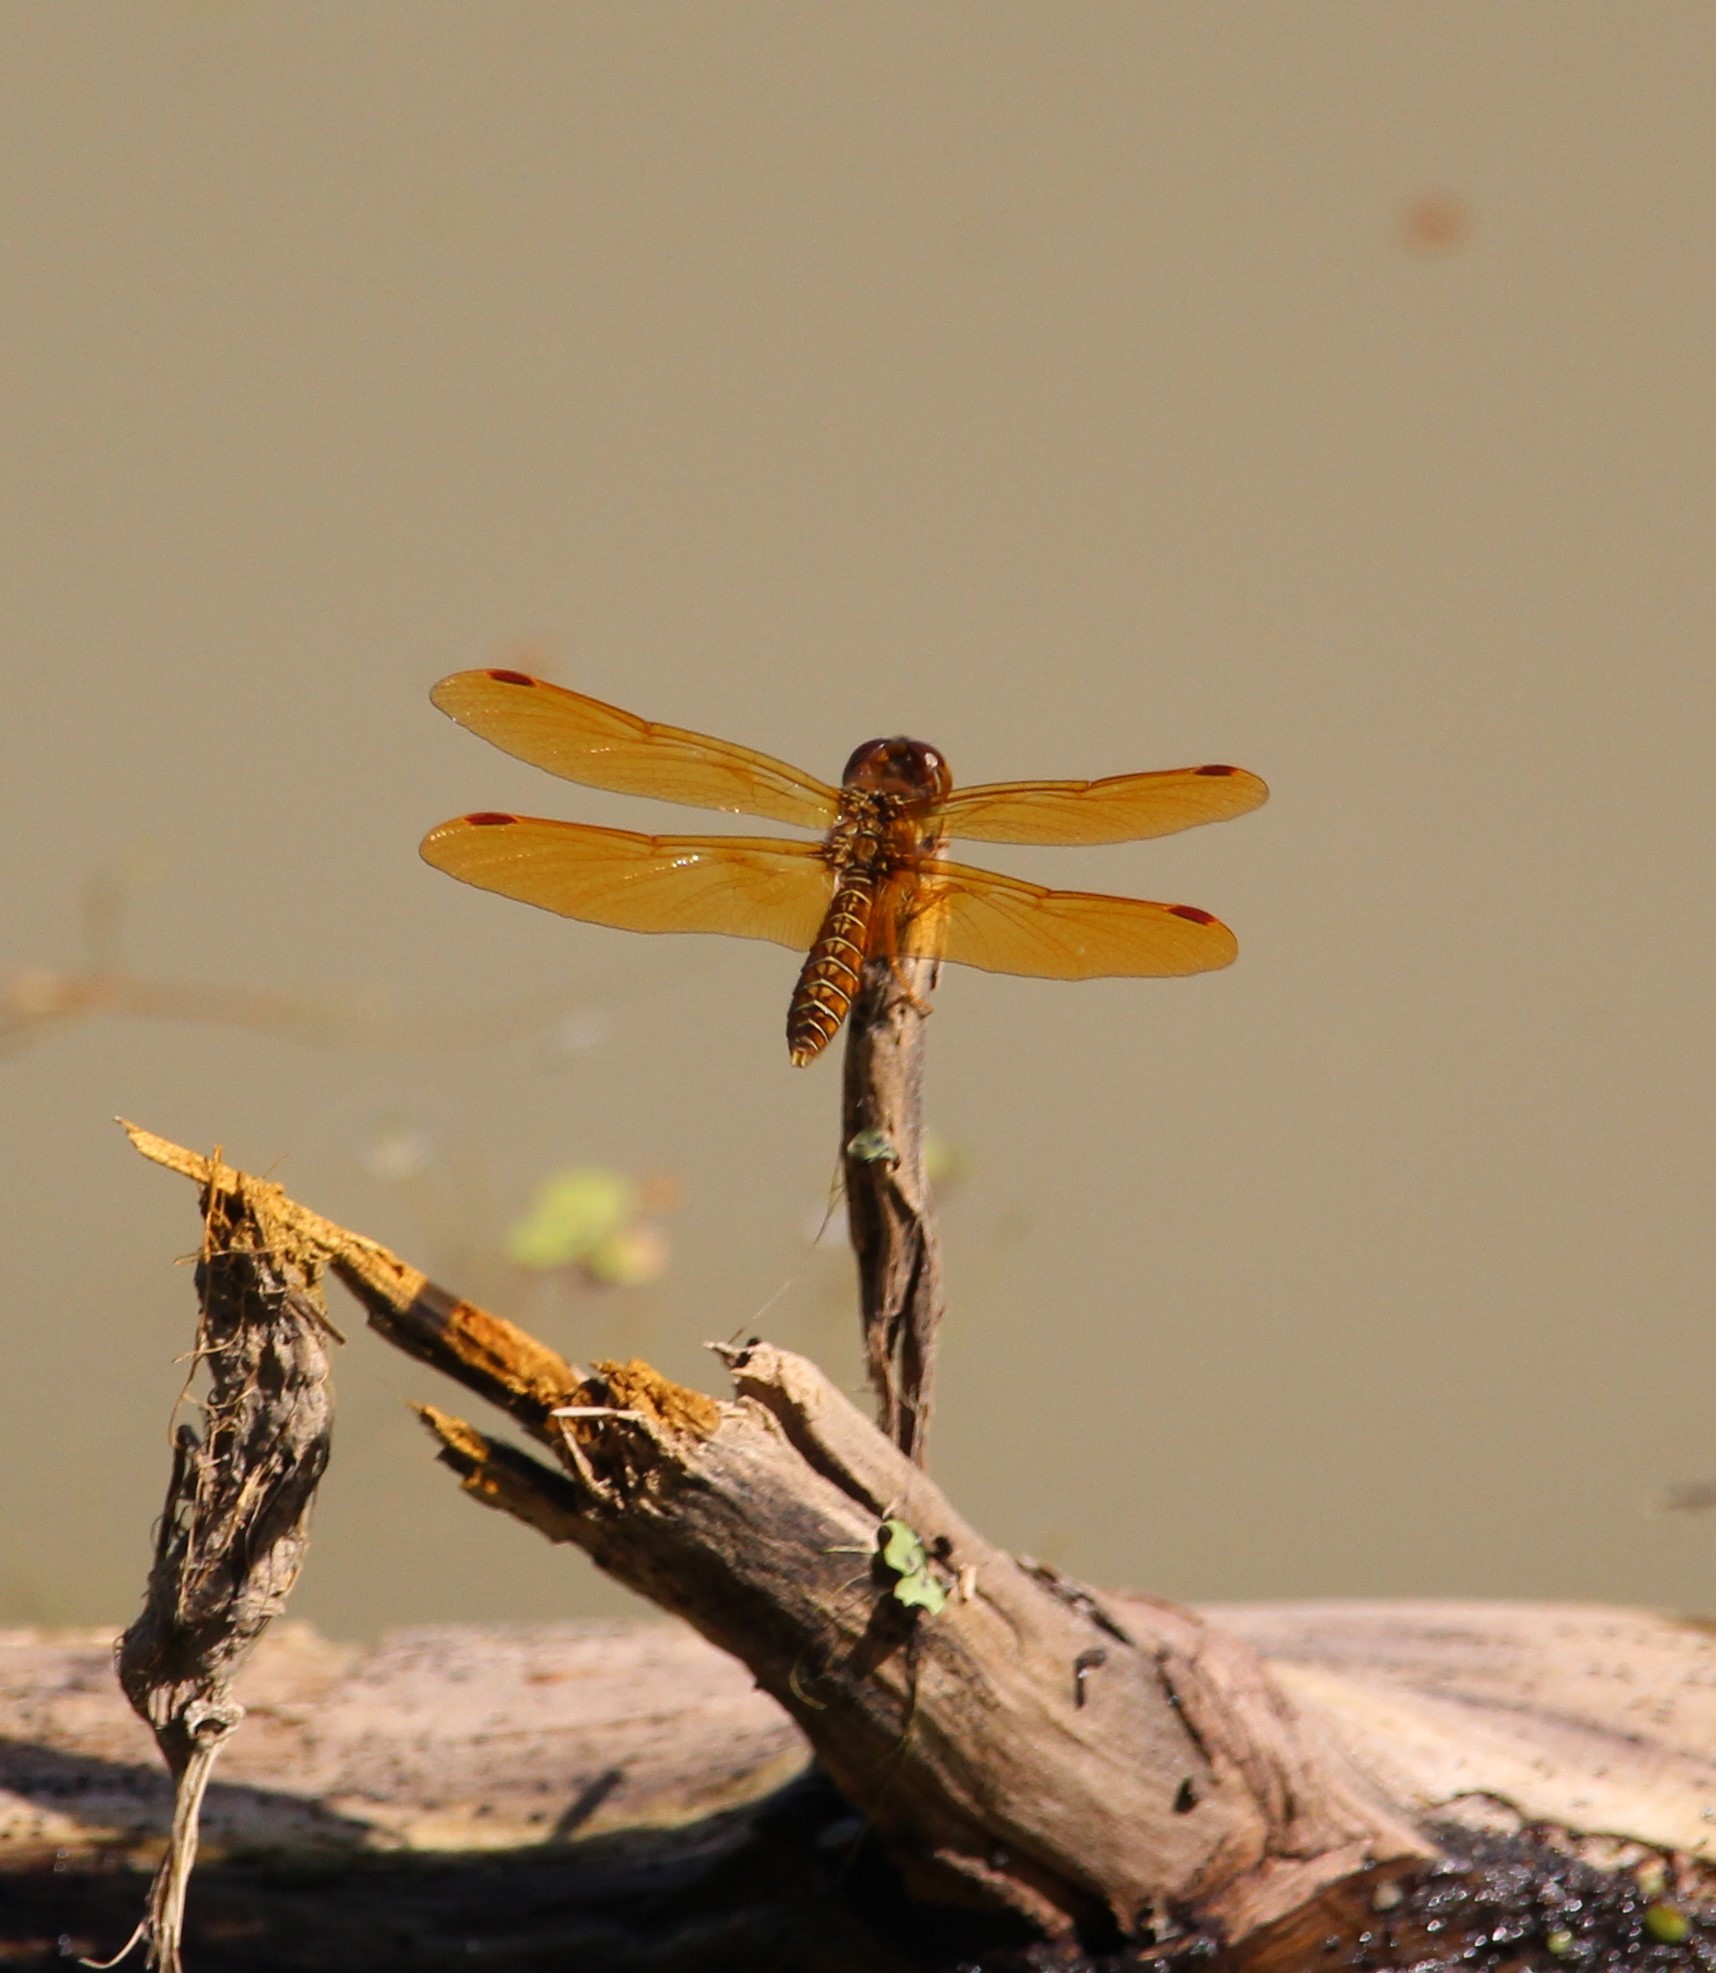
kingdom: Animalia
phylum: Arthropoda
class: Insecta
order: Odonata
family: Libellulidae
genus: Perithemis
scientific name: Perithemis tenera
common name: Eastern amberwing
